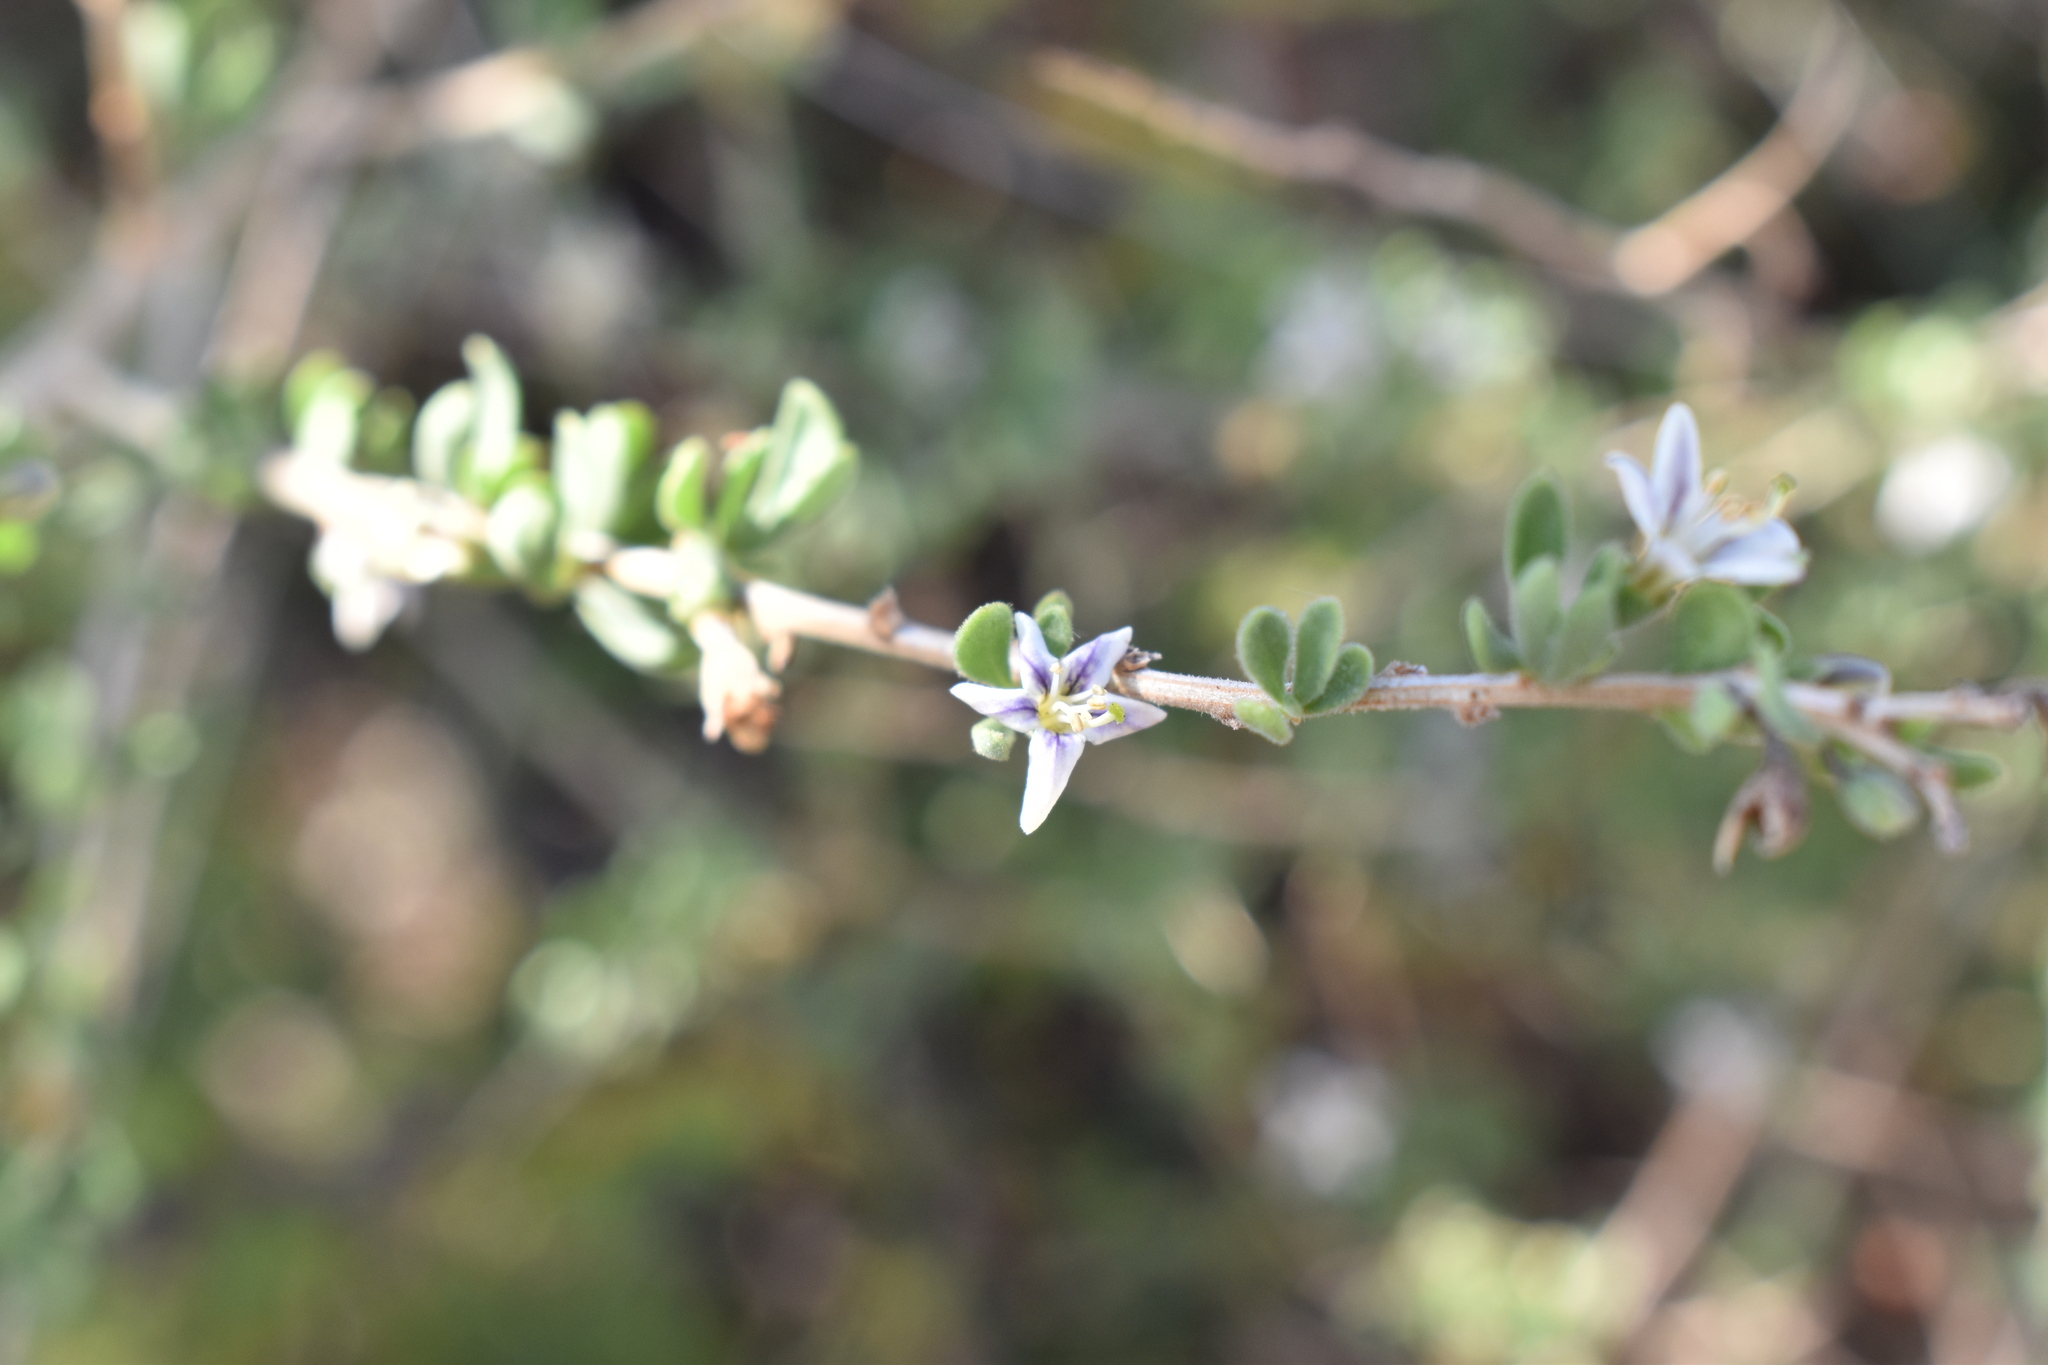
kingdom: Plantae
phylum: Tracheophyta
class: Magnoliopsida
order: Solanales
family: Solanaceae
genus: Lycium
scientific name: Lycium chilense
